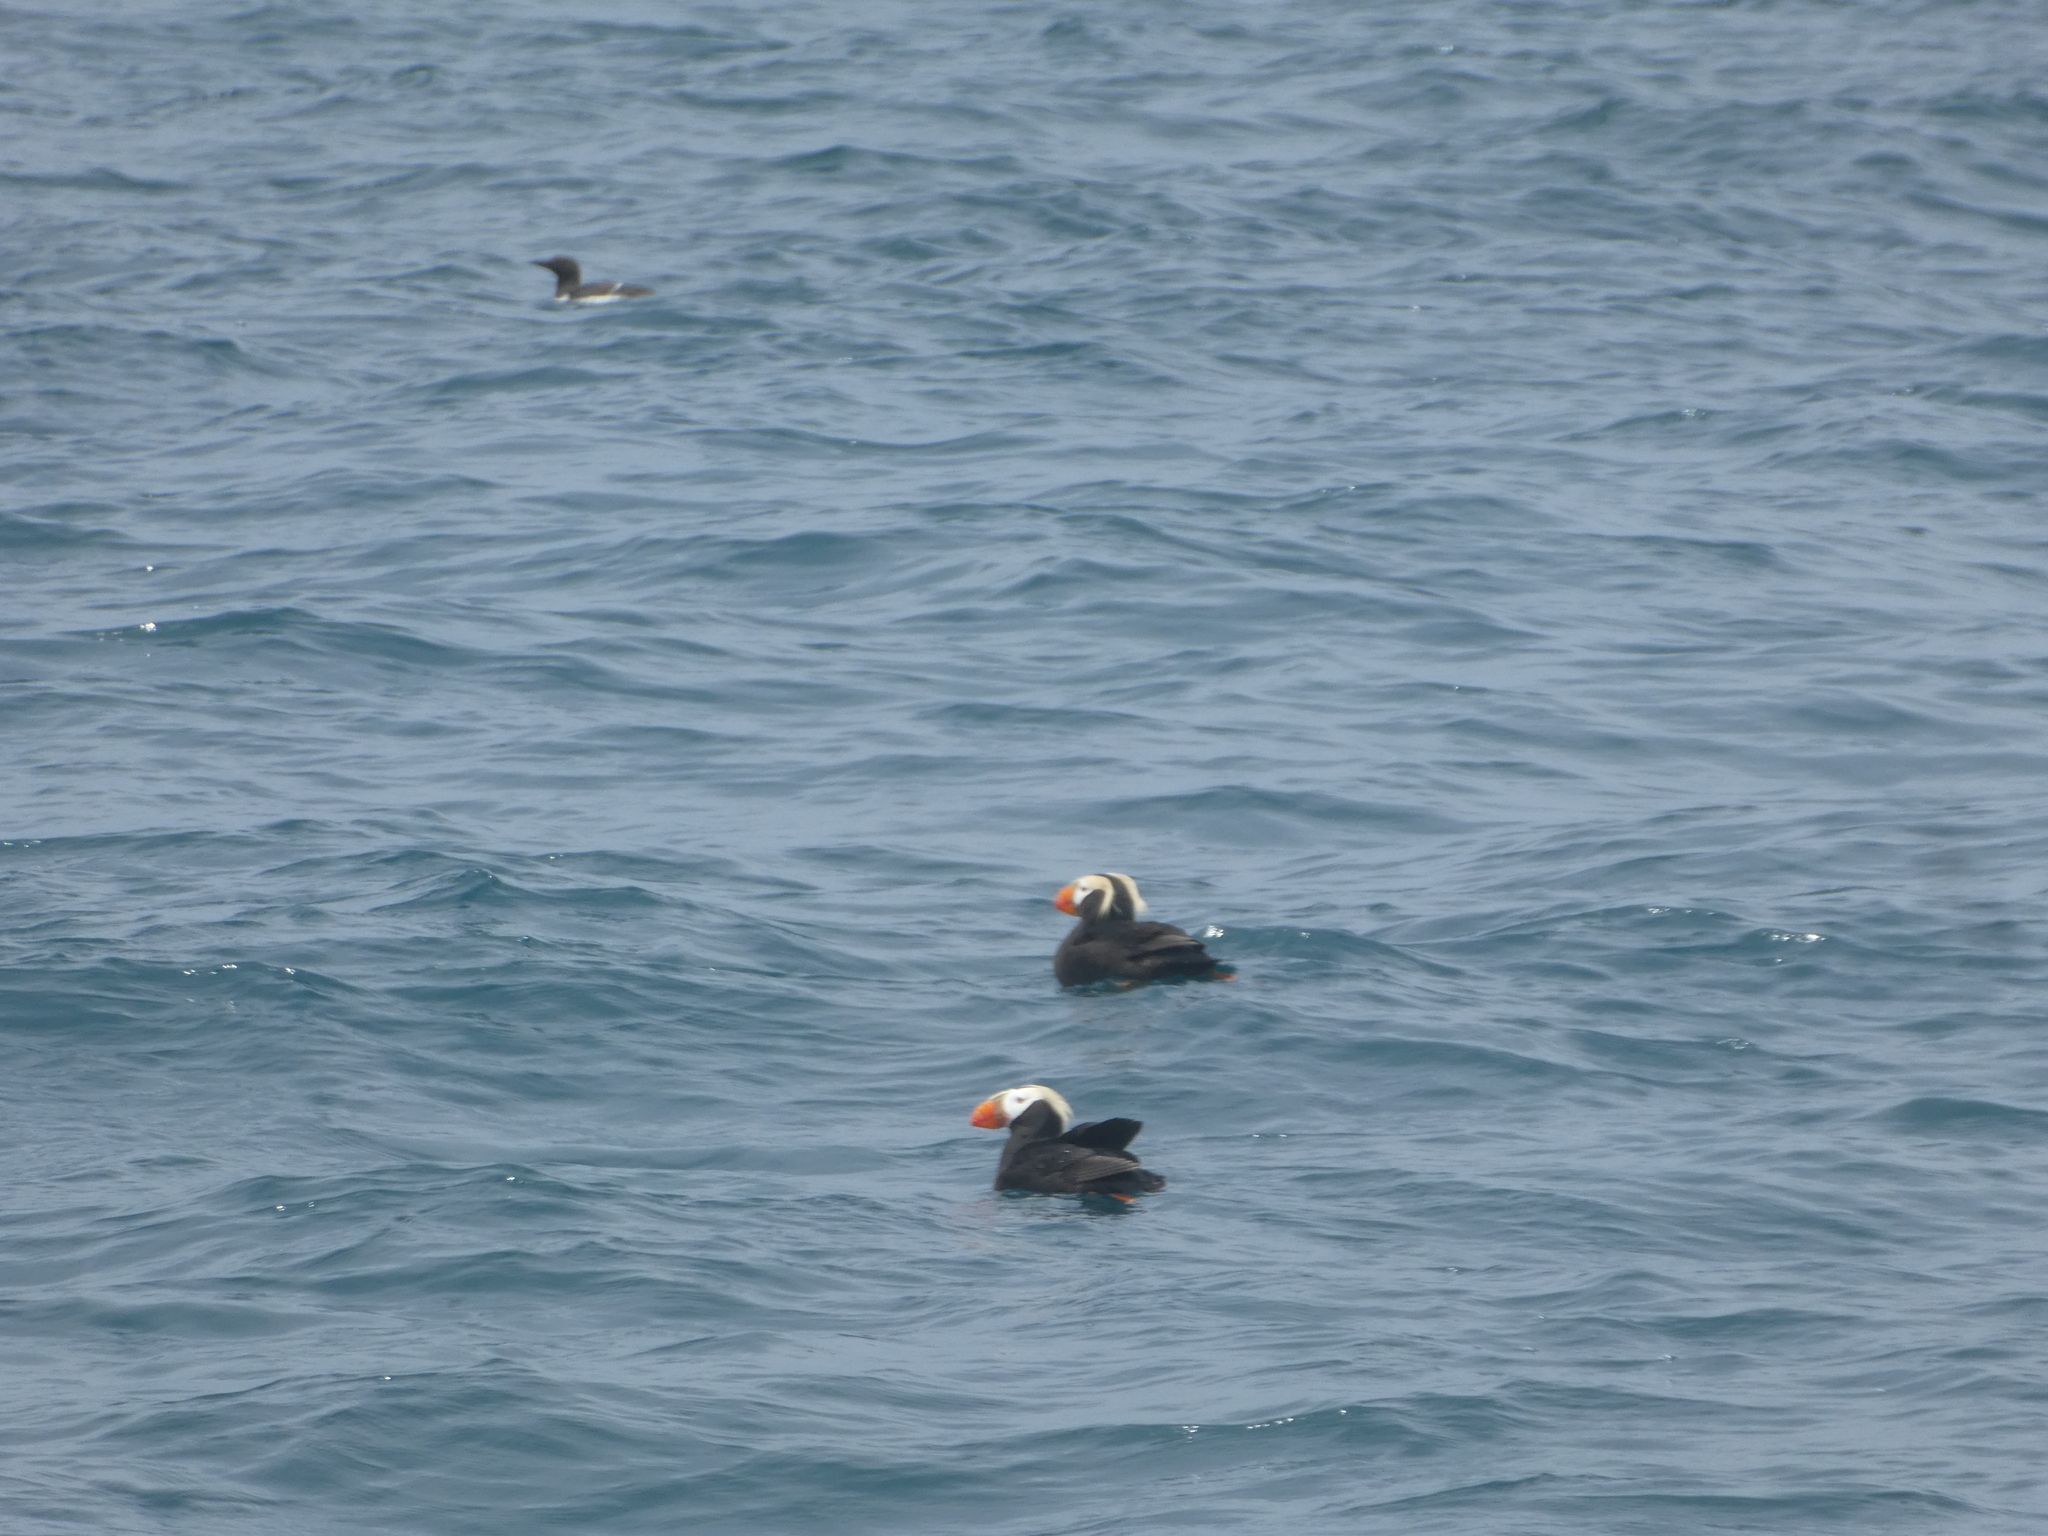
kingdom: Animalia
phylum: Chordata
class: Aves
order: Charadriiformes
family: Alcidae
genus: Fratercula
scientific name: Fratercula cirrhata
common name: Tufted puffin
